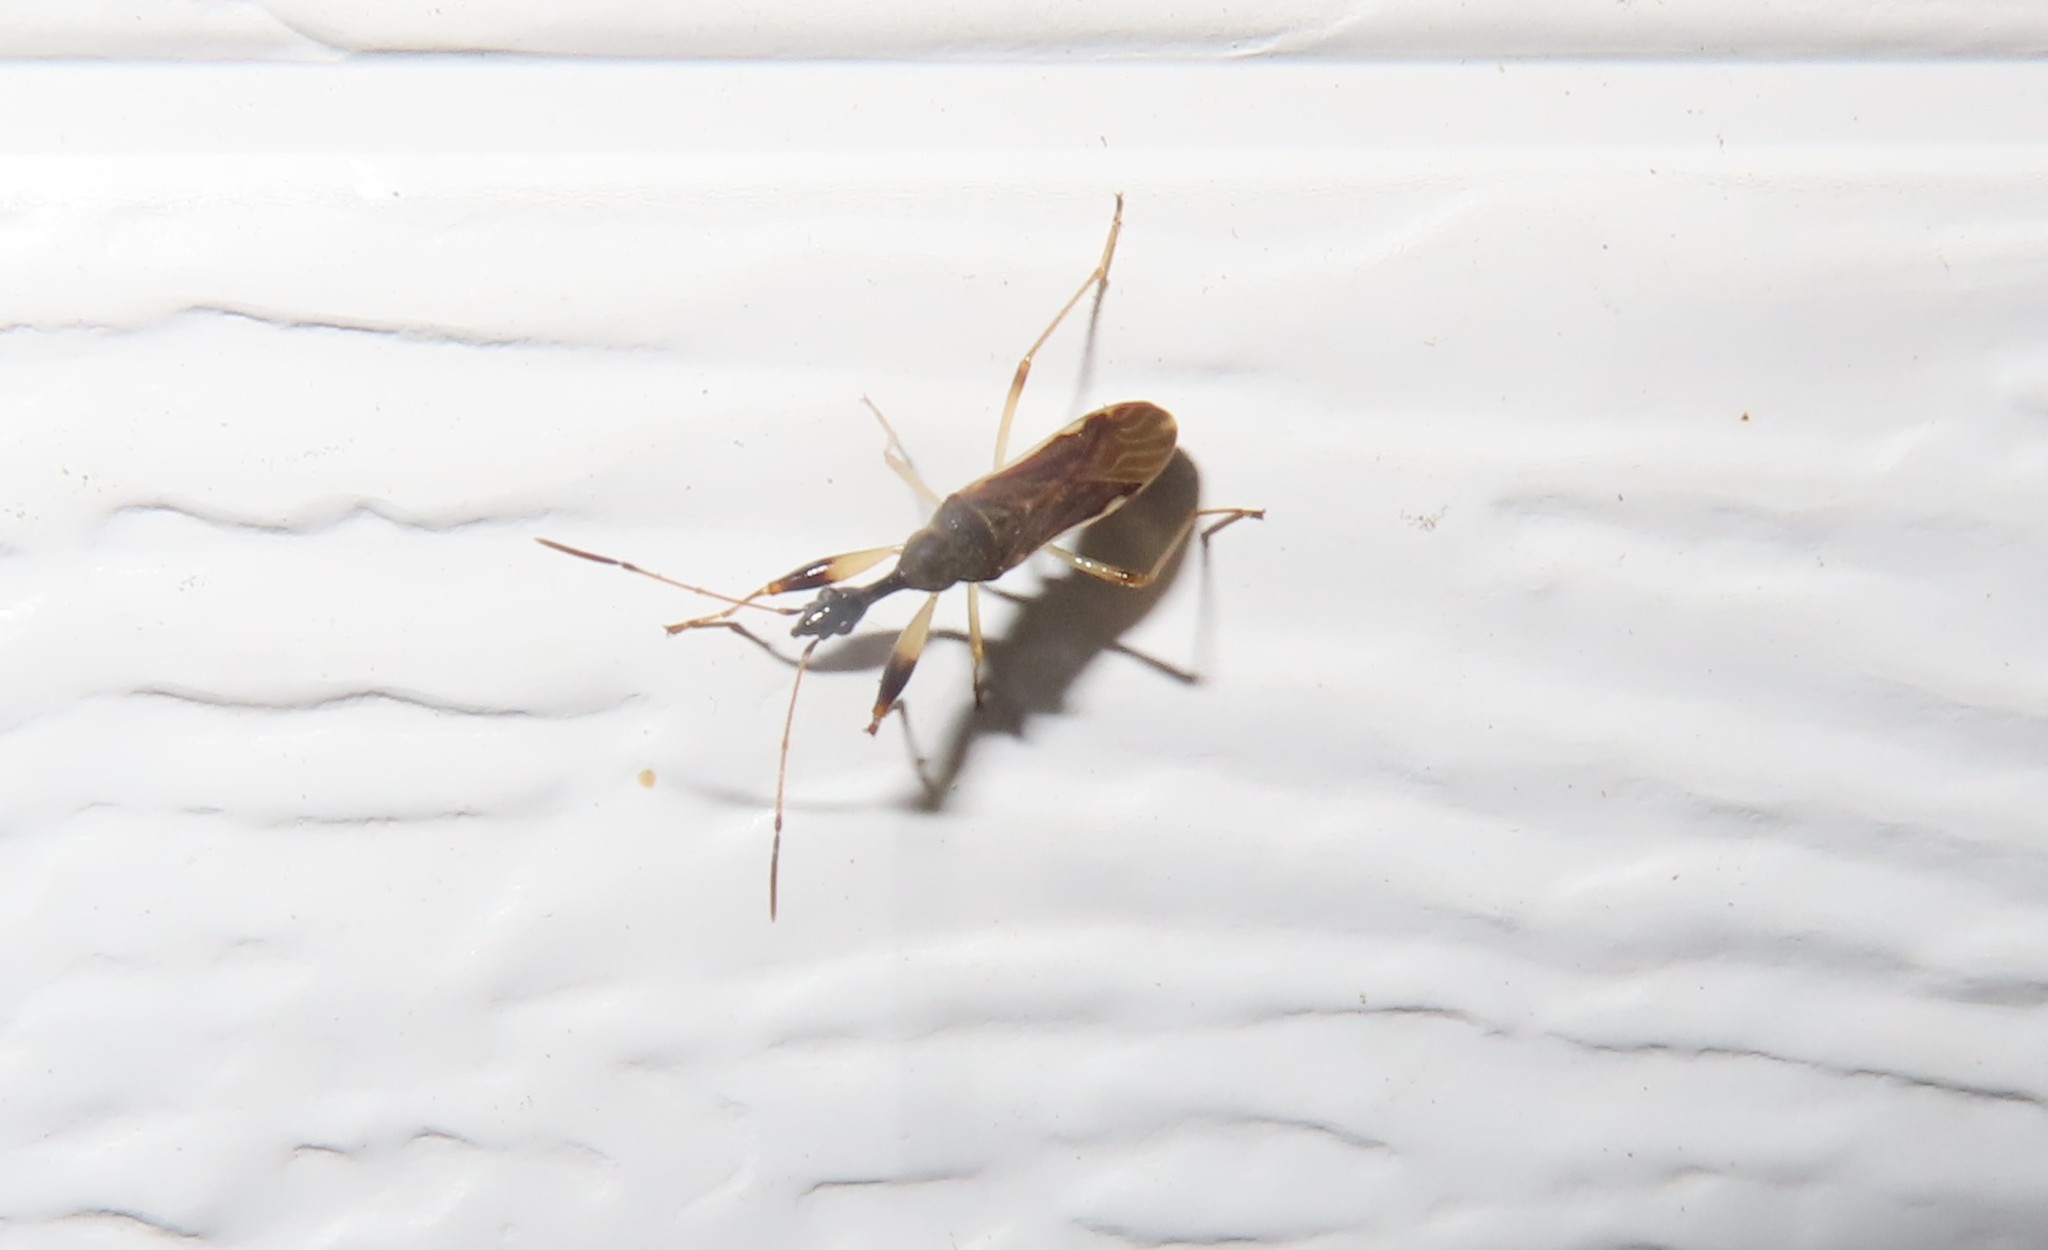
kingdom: Animalia
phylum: Arthropoda
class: Insecta
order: Hemiptera
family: Rhyparochromidae
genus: Myodocha
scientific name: Myodocha serripes
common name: Long-necked seed bug
